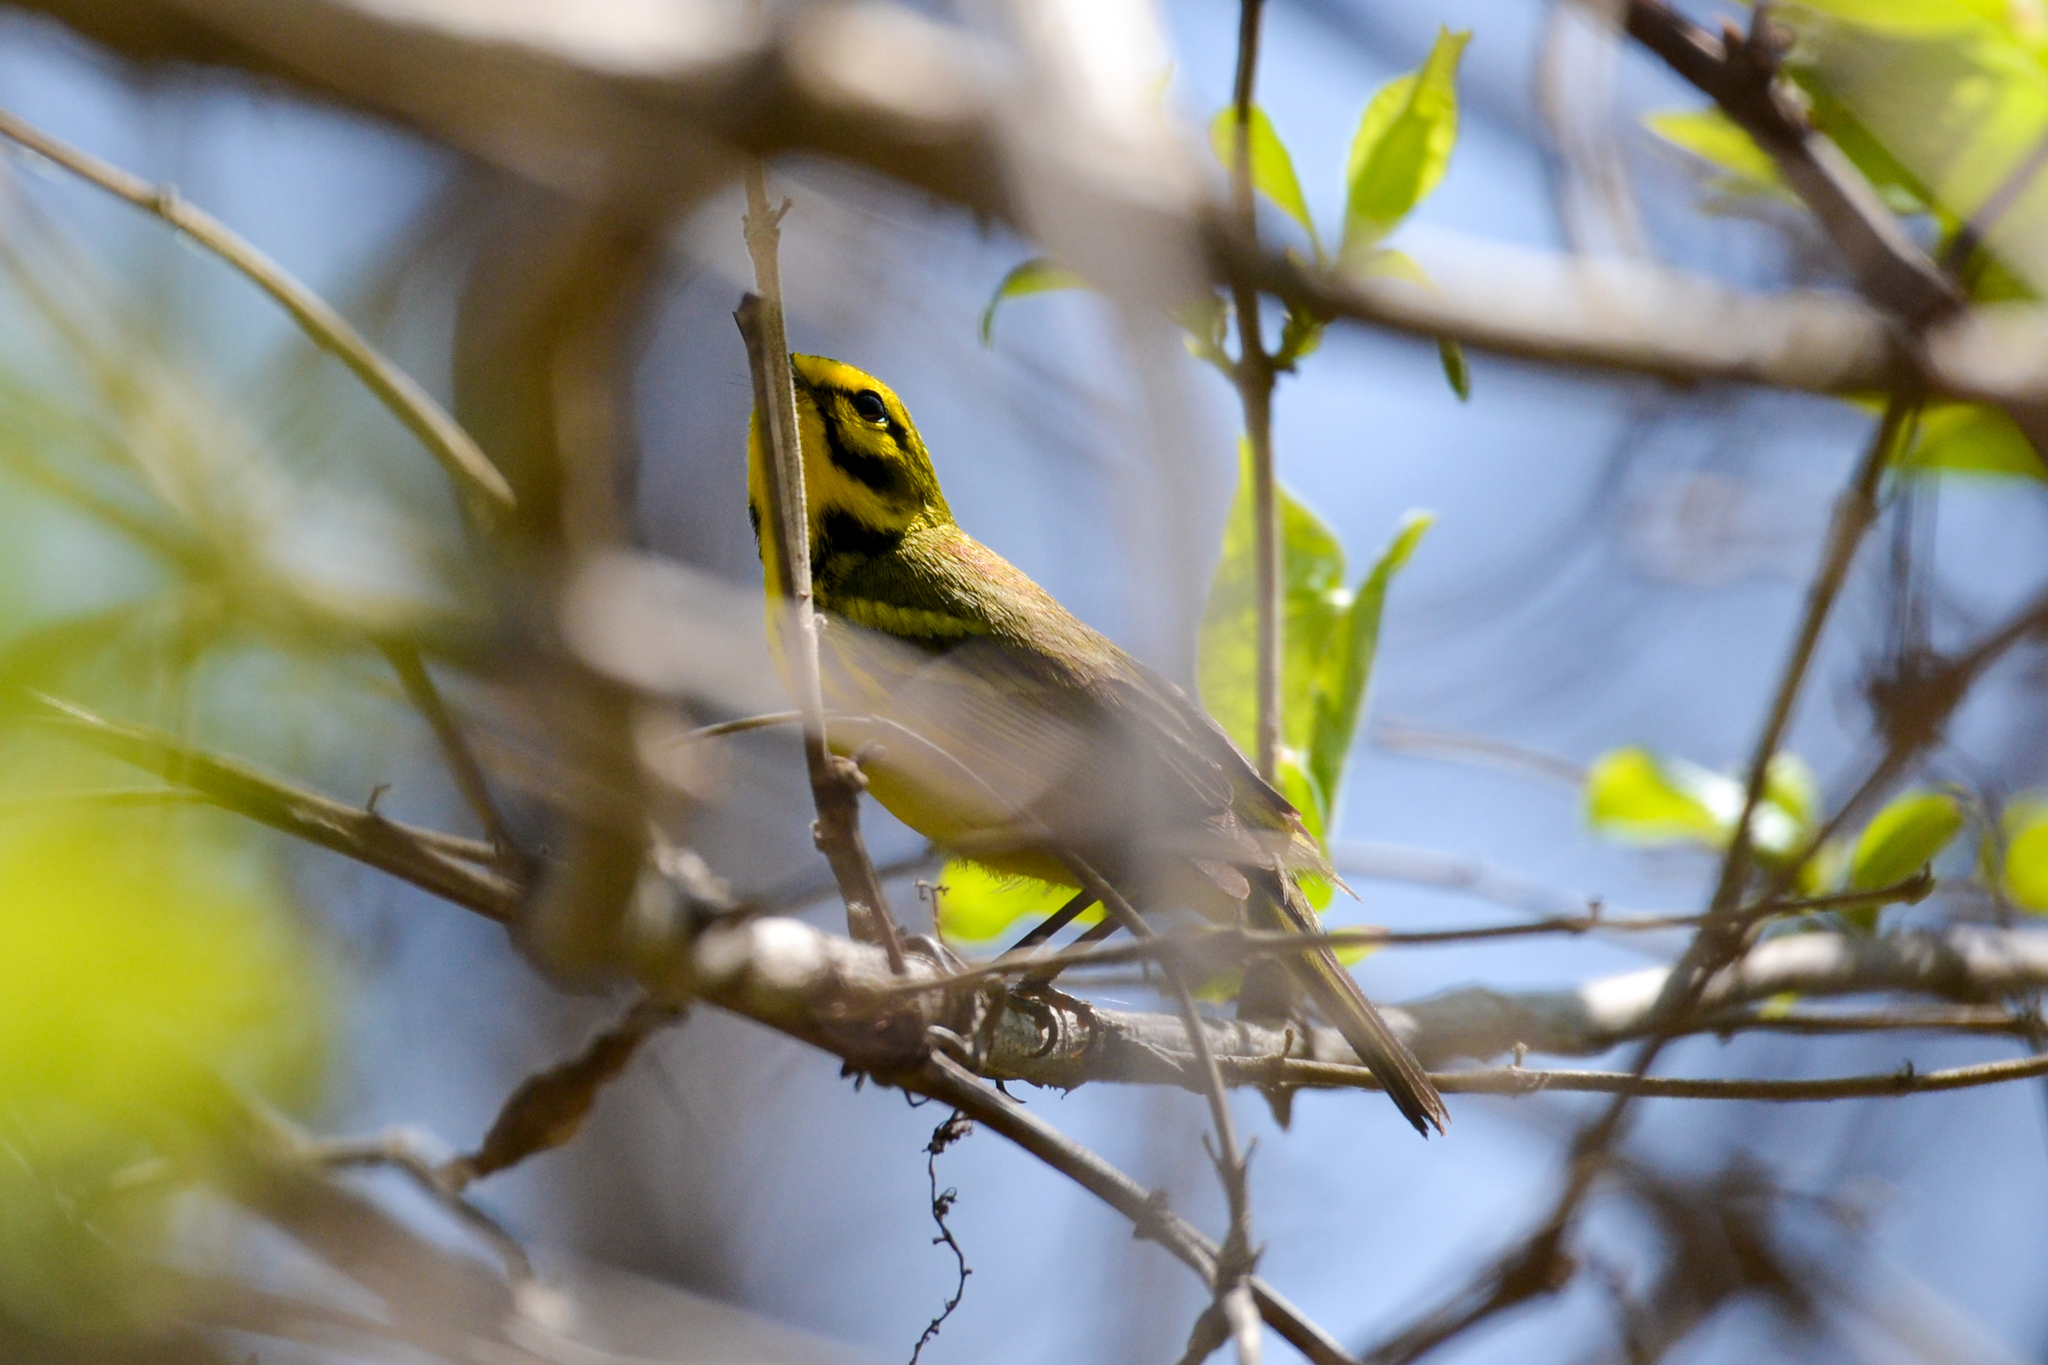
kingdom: Animalia
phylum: Chordata
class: Aves
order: Passeriformes
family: Parulidae
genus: Setophaga
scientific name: Setophaga discolor
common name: Prairie warbler
